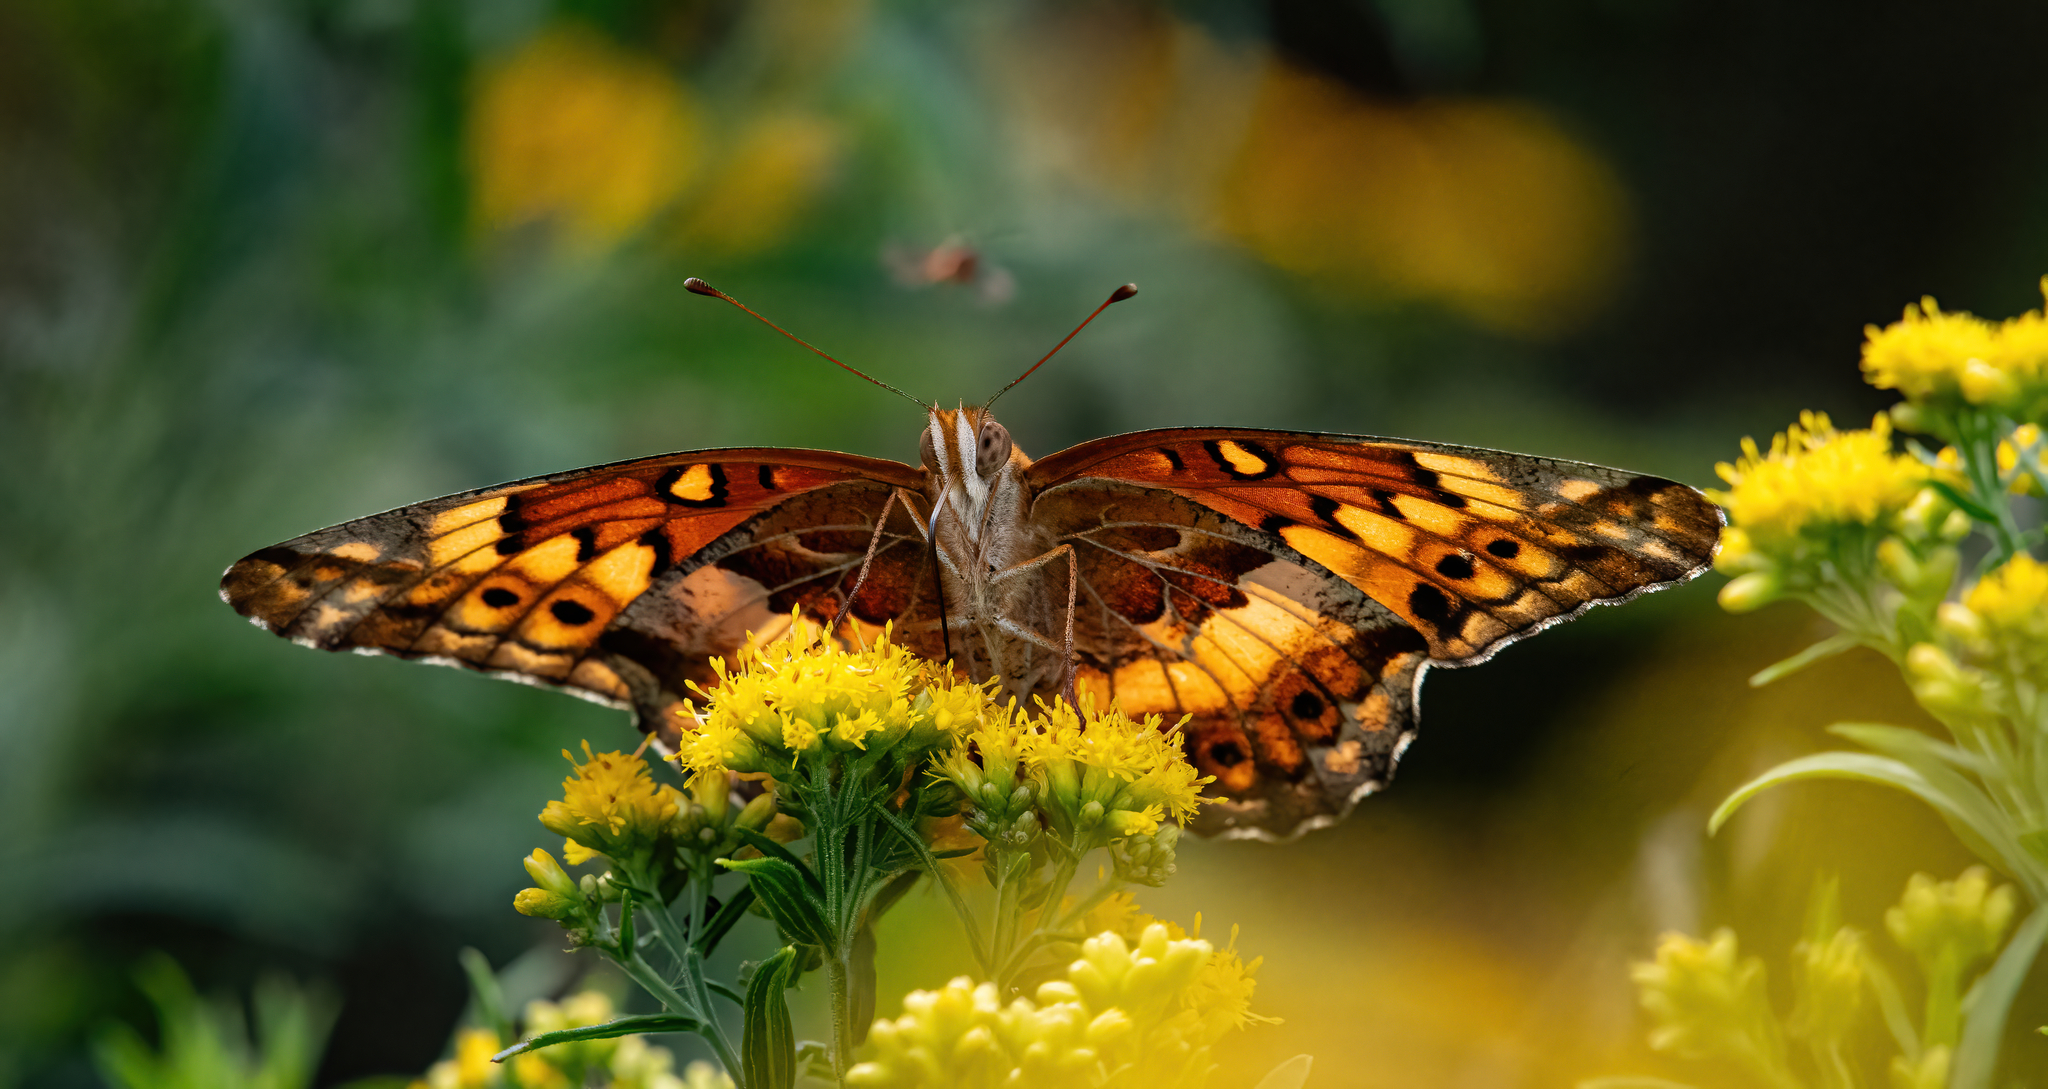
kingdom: Animalia
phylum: Arthropoda
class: Insecta
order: Lepidoptera
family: Nymphalidae
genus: Euptoieta
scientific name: Euptoieta claudia
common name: Variegated fritillary
